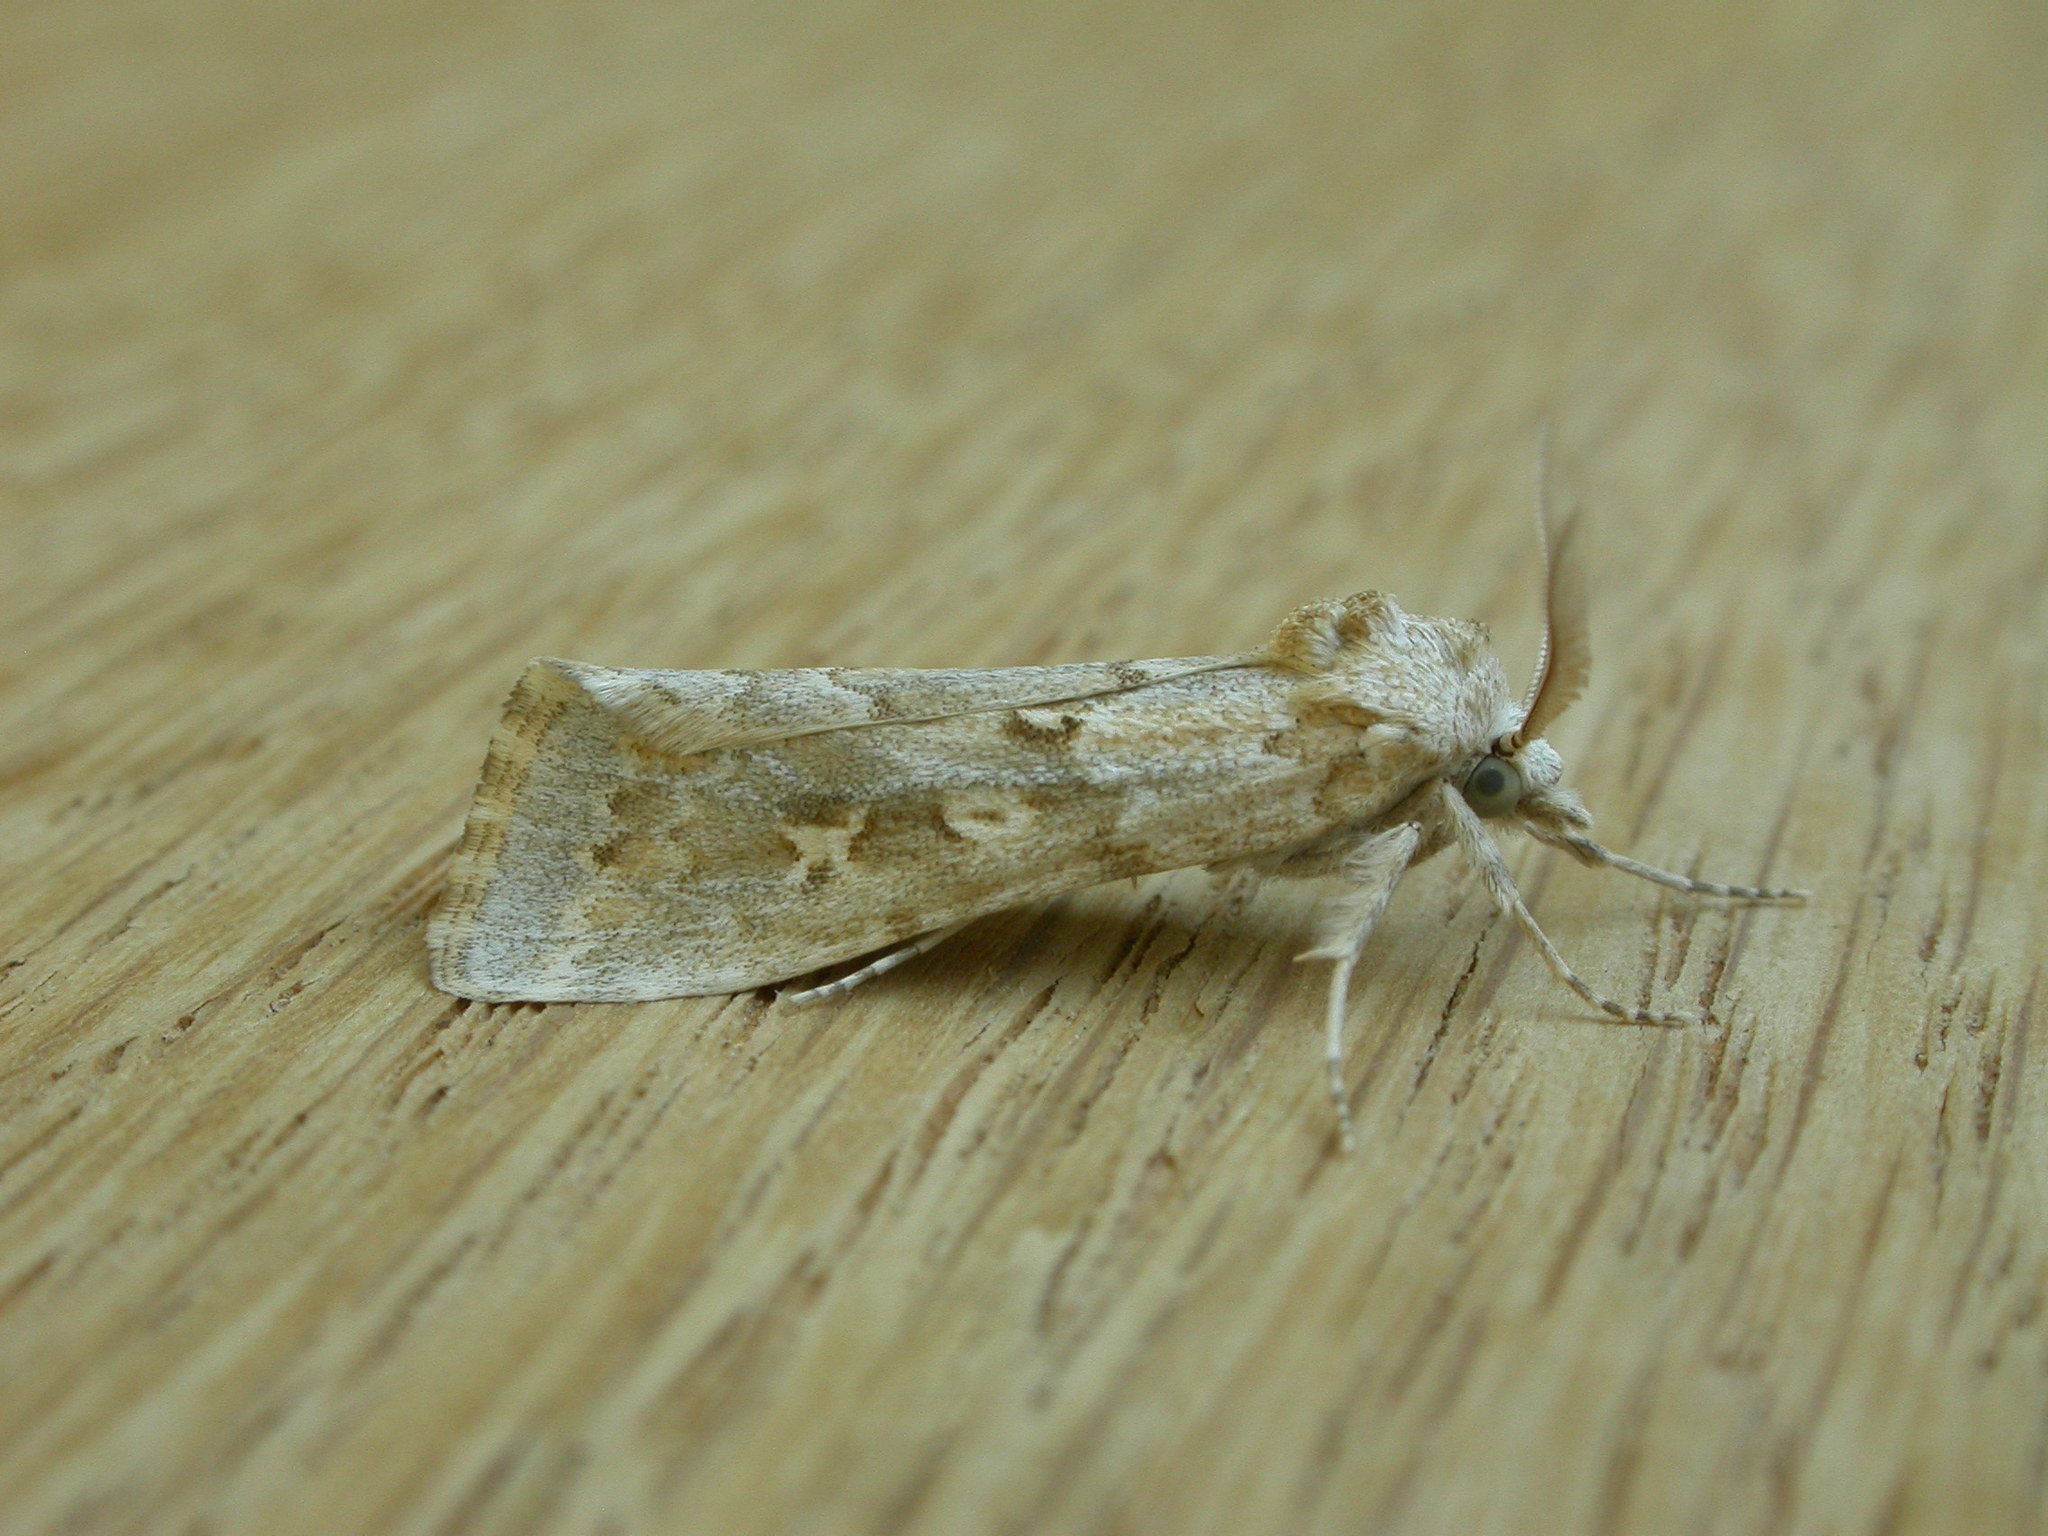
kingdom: Animalia
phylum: Arthropoda
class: Insecta
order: Lepidoptera
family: Noctuidae
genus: Eremochroa
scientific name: Eremochroa alphitias
